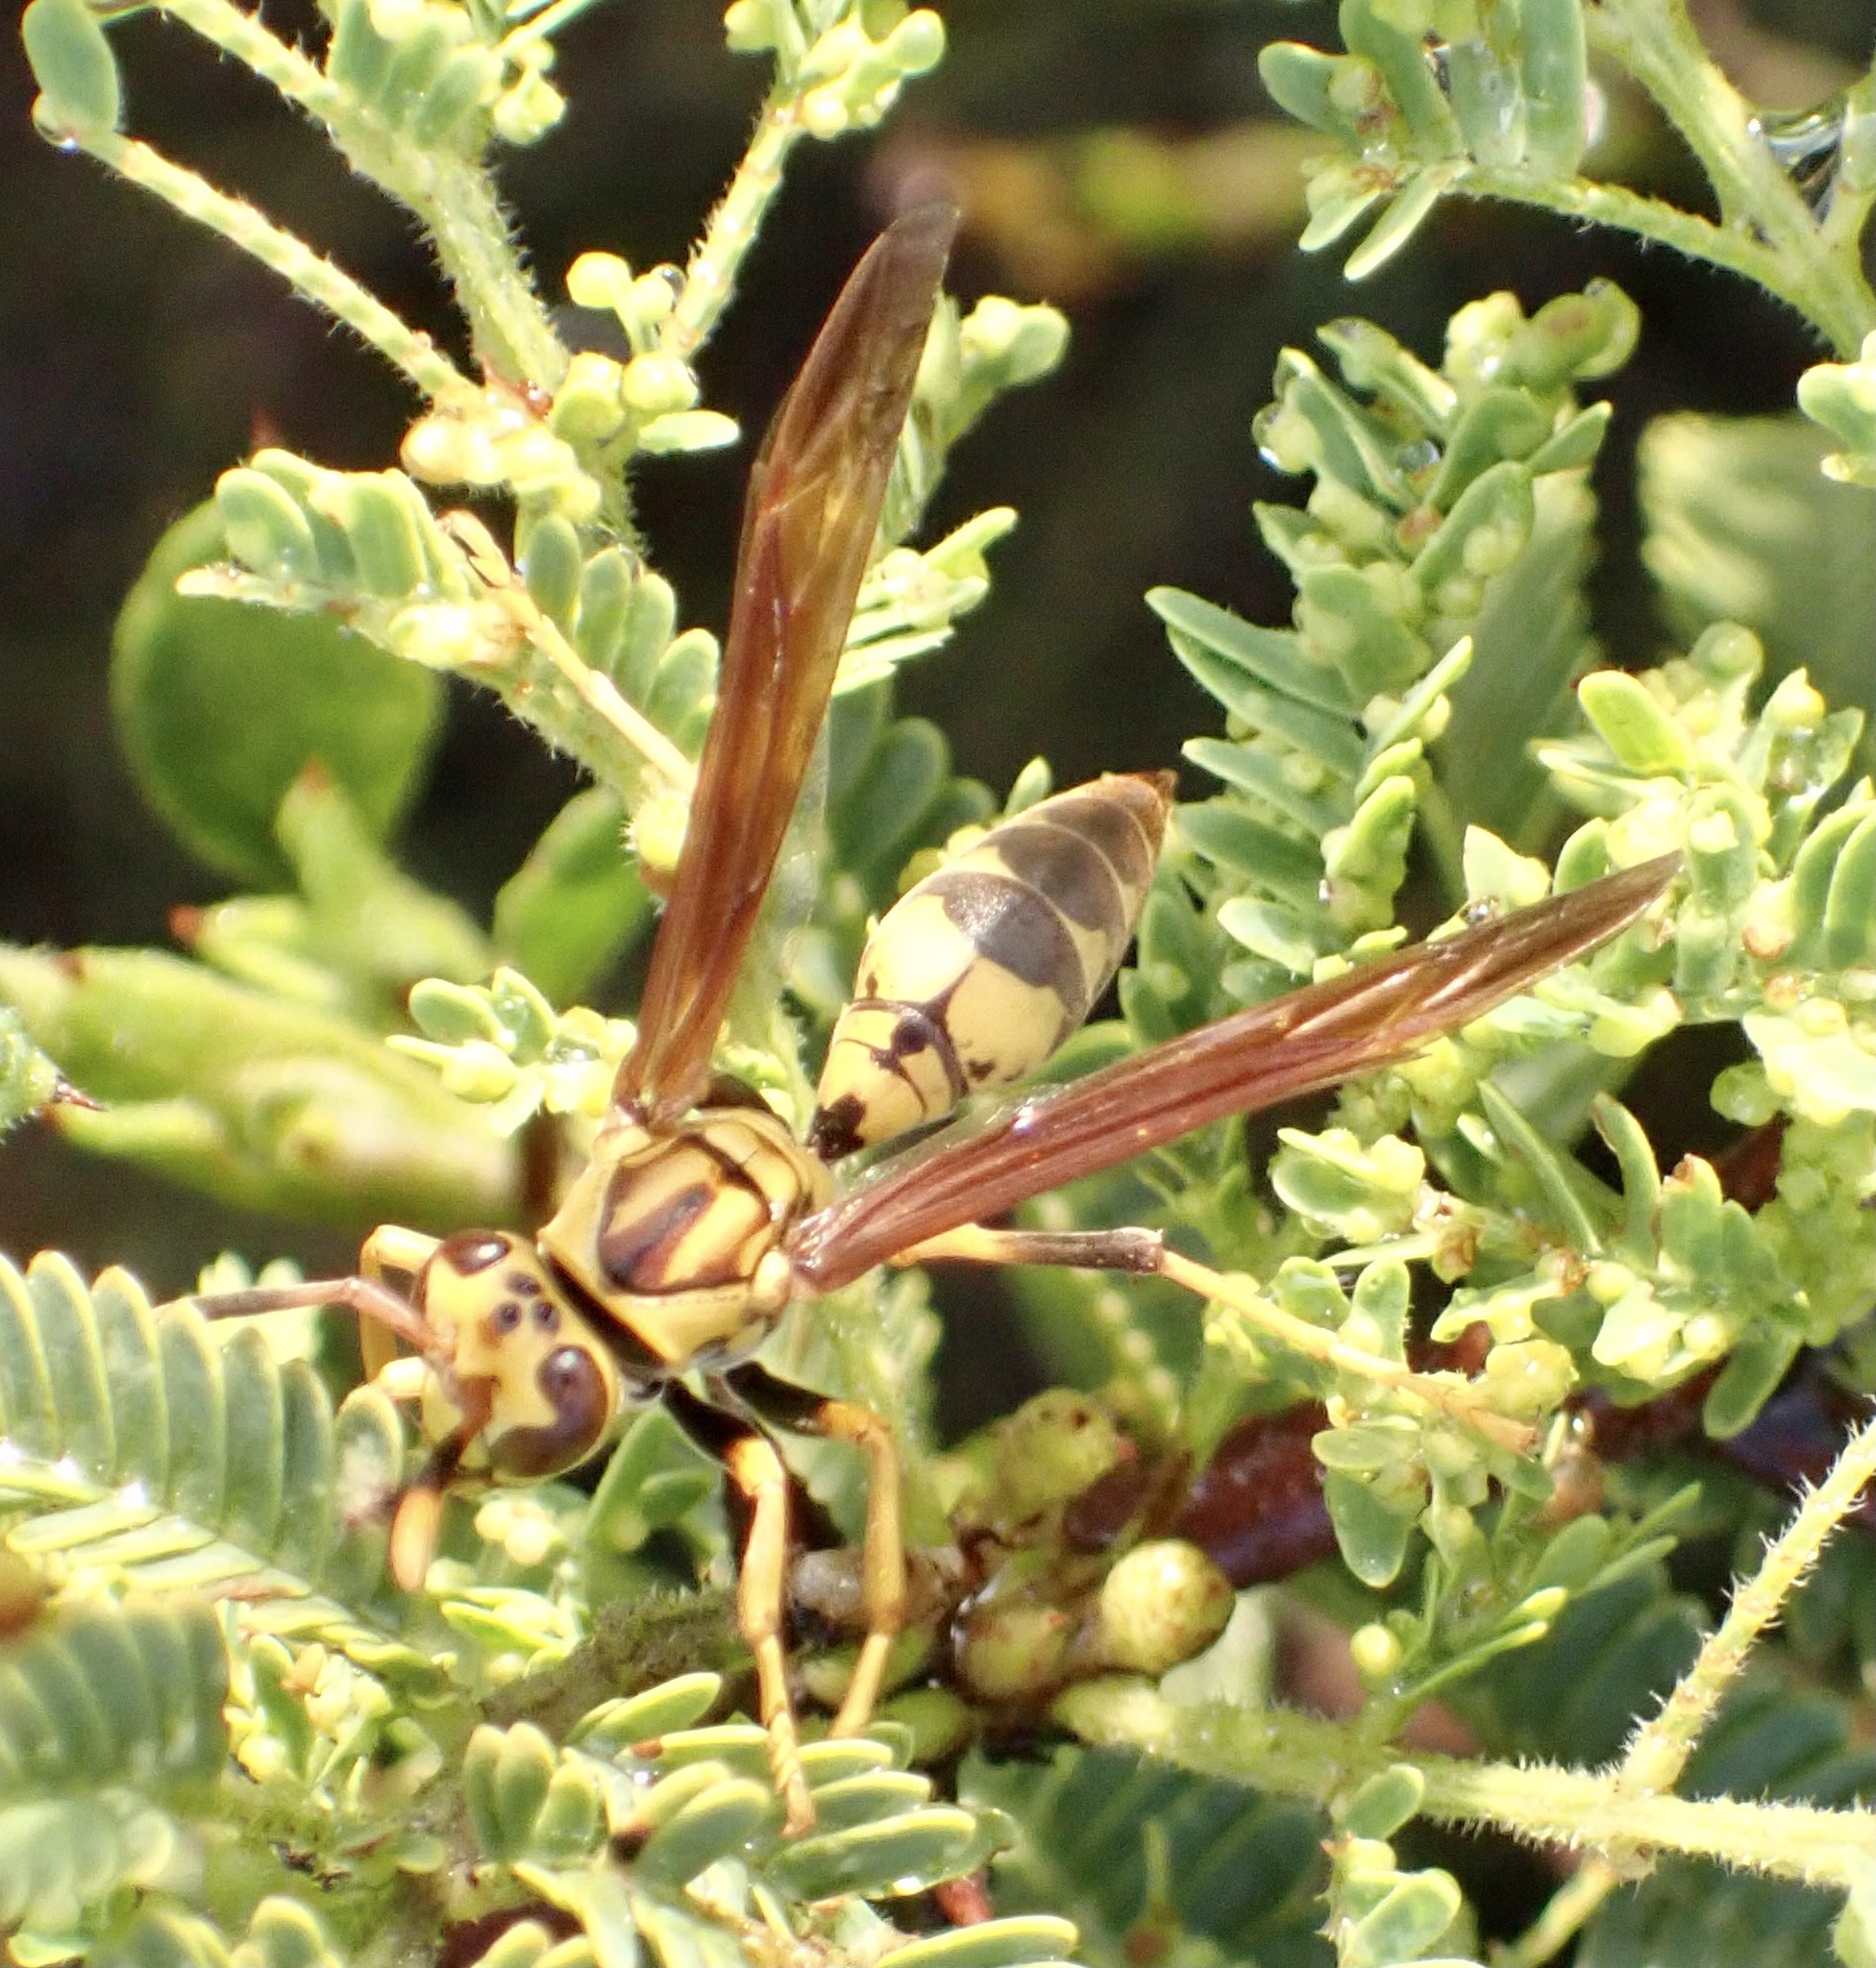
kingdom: Animalia
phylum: Arthropoda
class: Insecta
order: Hymenoptera
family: Eumenidae
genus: Polistes
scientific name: Polistes myersi
